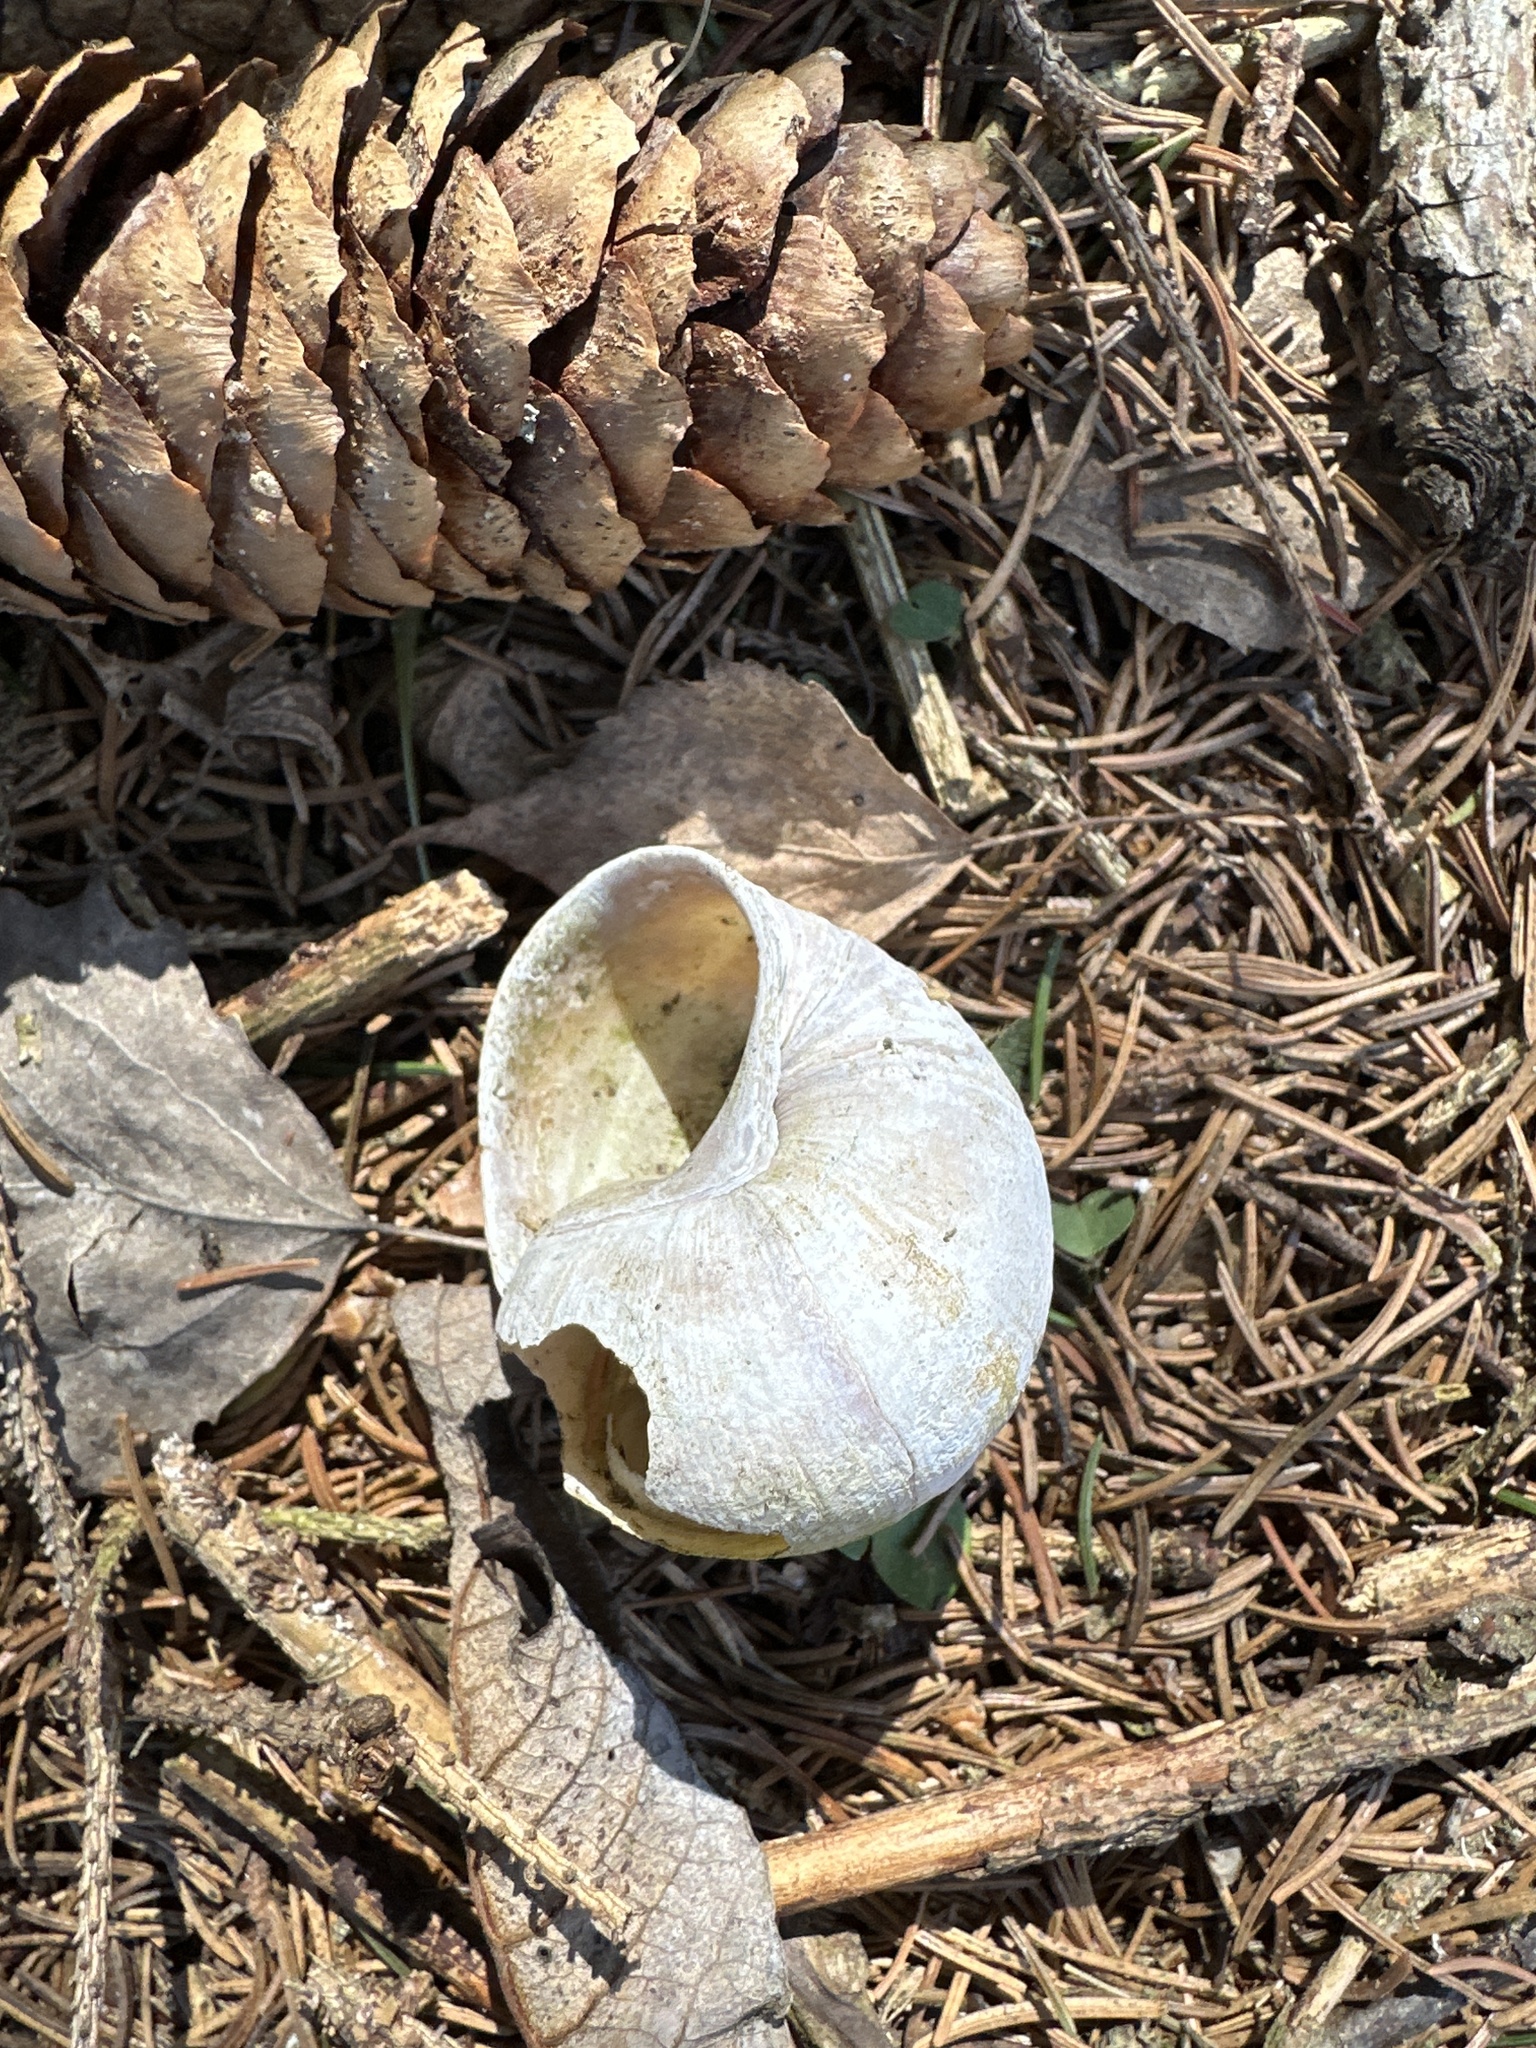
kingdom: Animalia
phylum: Mollusca
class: Gastropoda
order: Stylommatophora
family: Helicidae
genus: Helix
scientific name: Helix pomatia
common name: Roman snail
